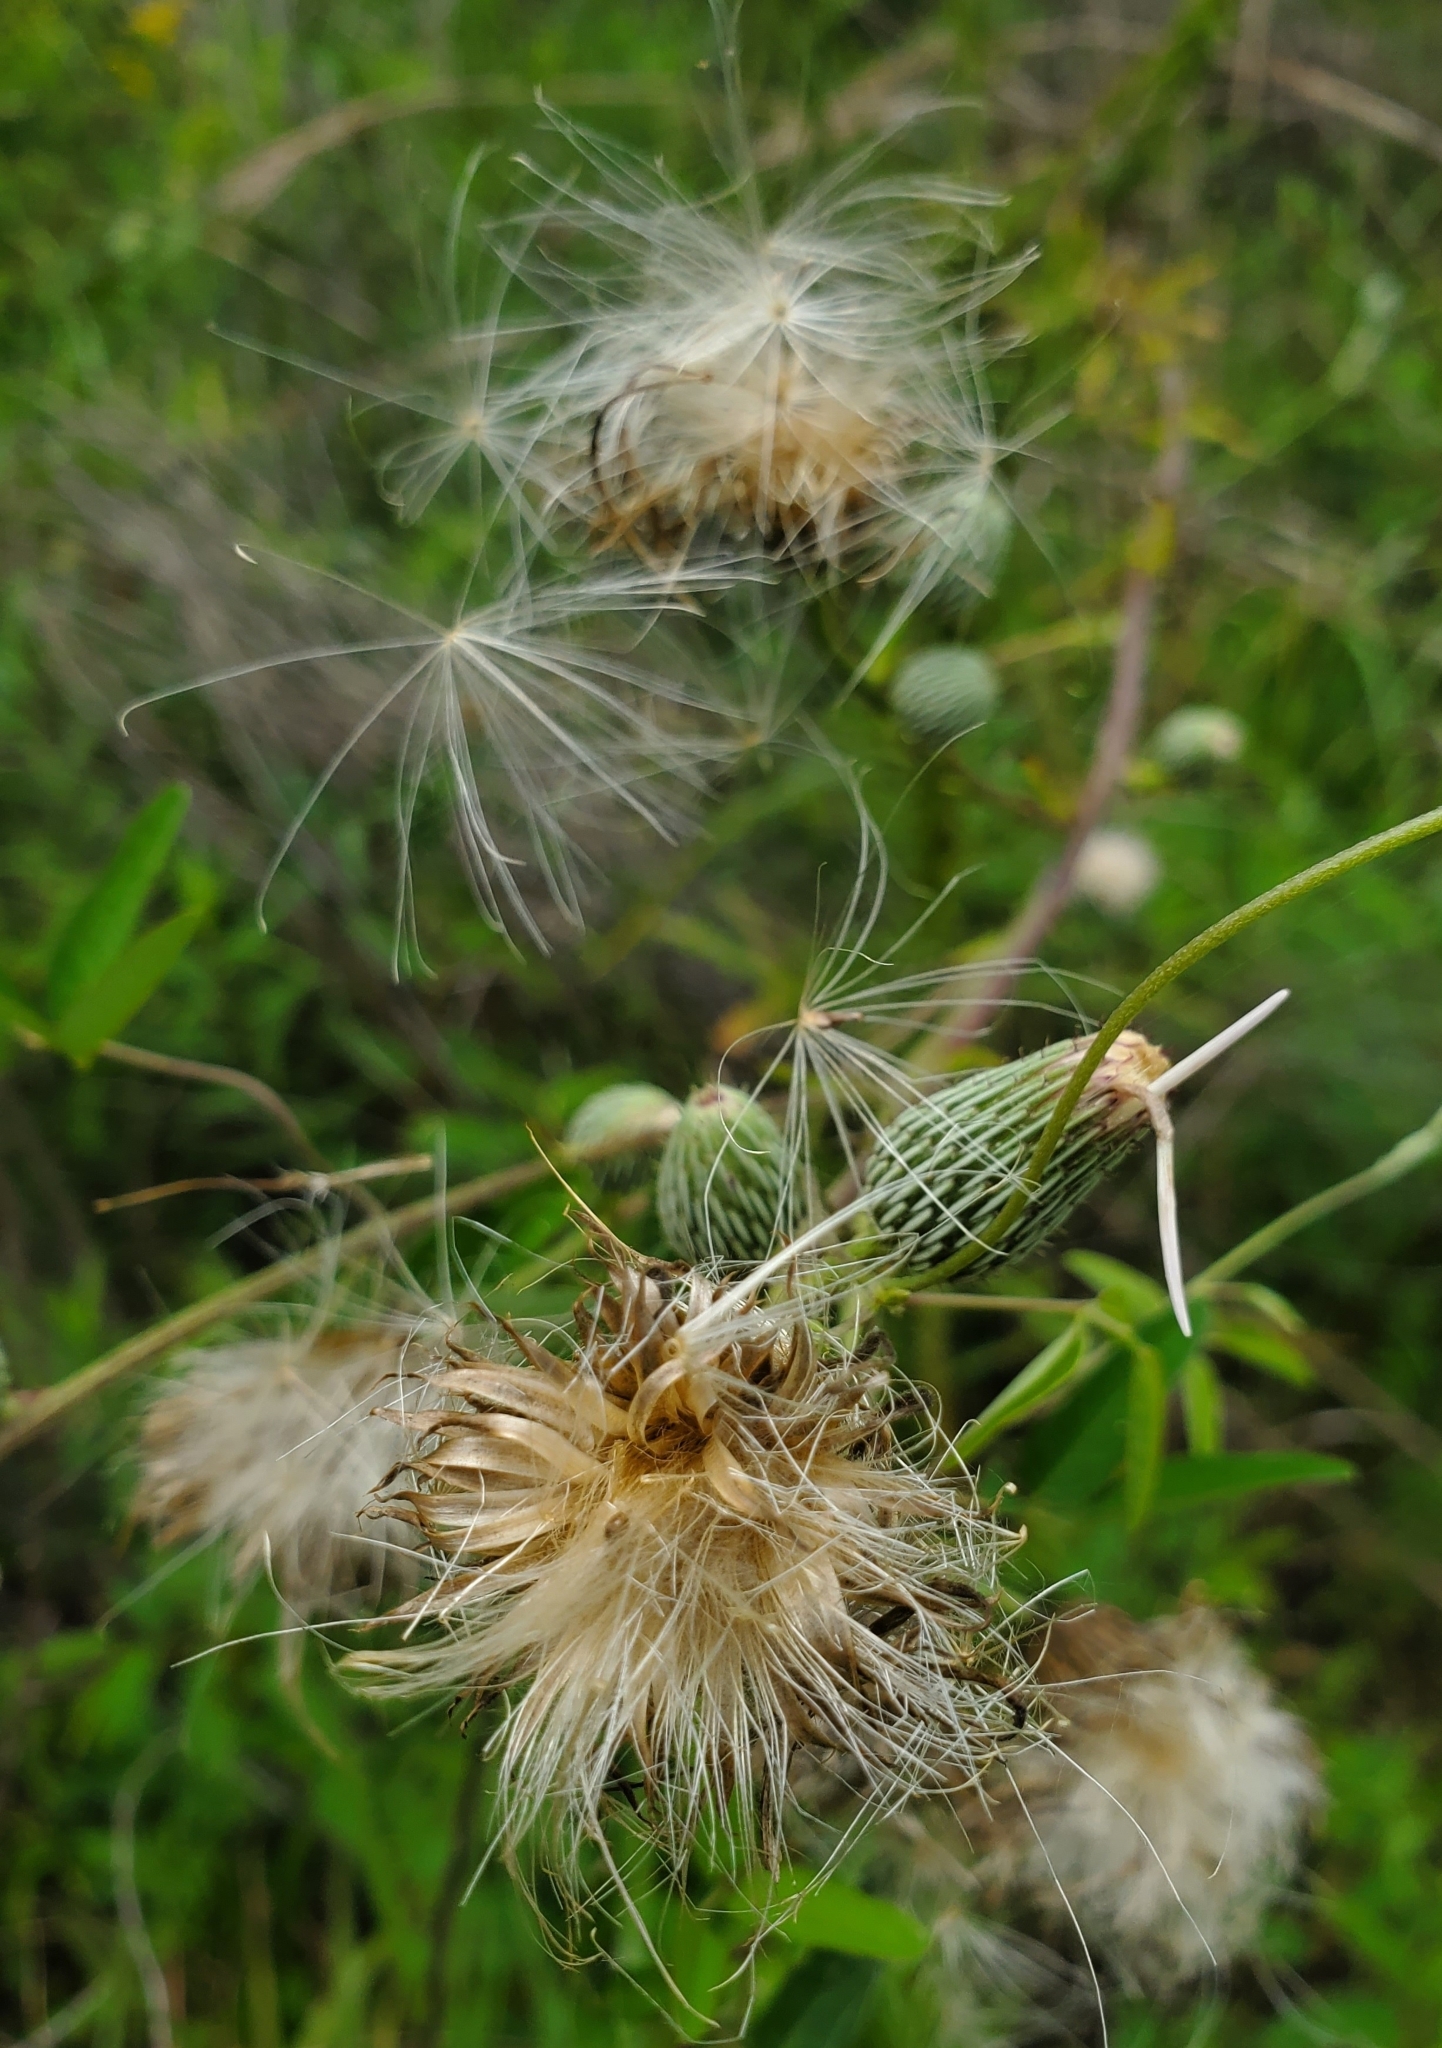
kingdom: Plantae
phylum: Tracheophyta
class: Magnoliopsida
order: Asterales
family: Asteraceae
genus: Cirsium
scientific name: Cirsium nuttalii
